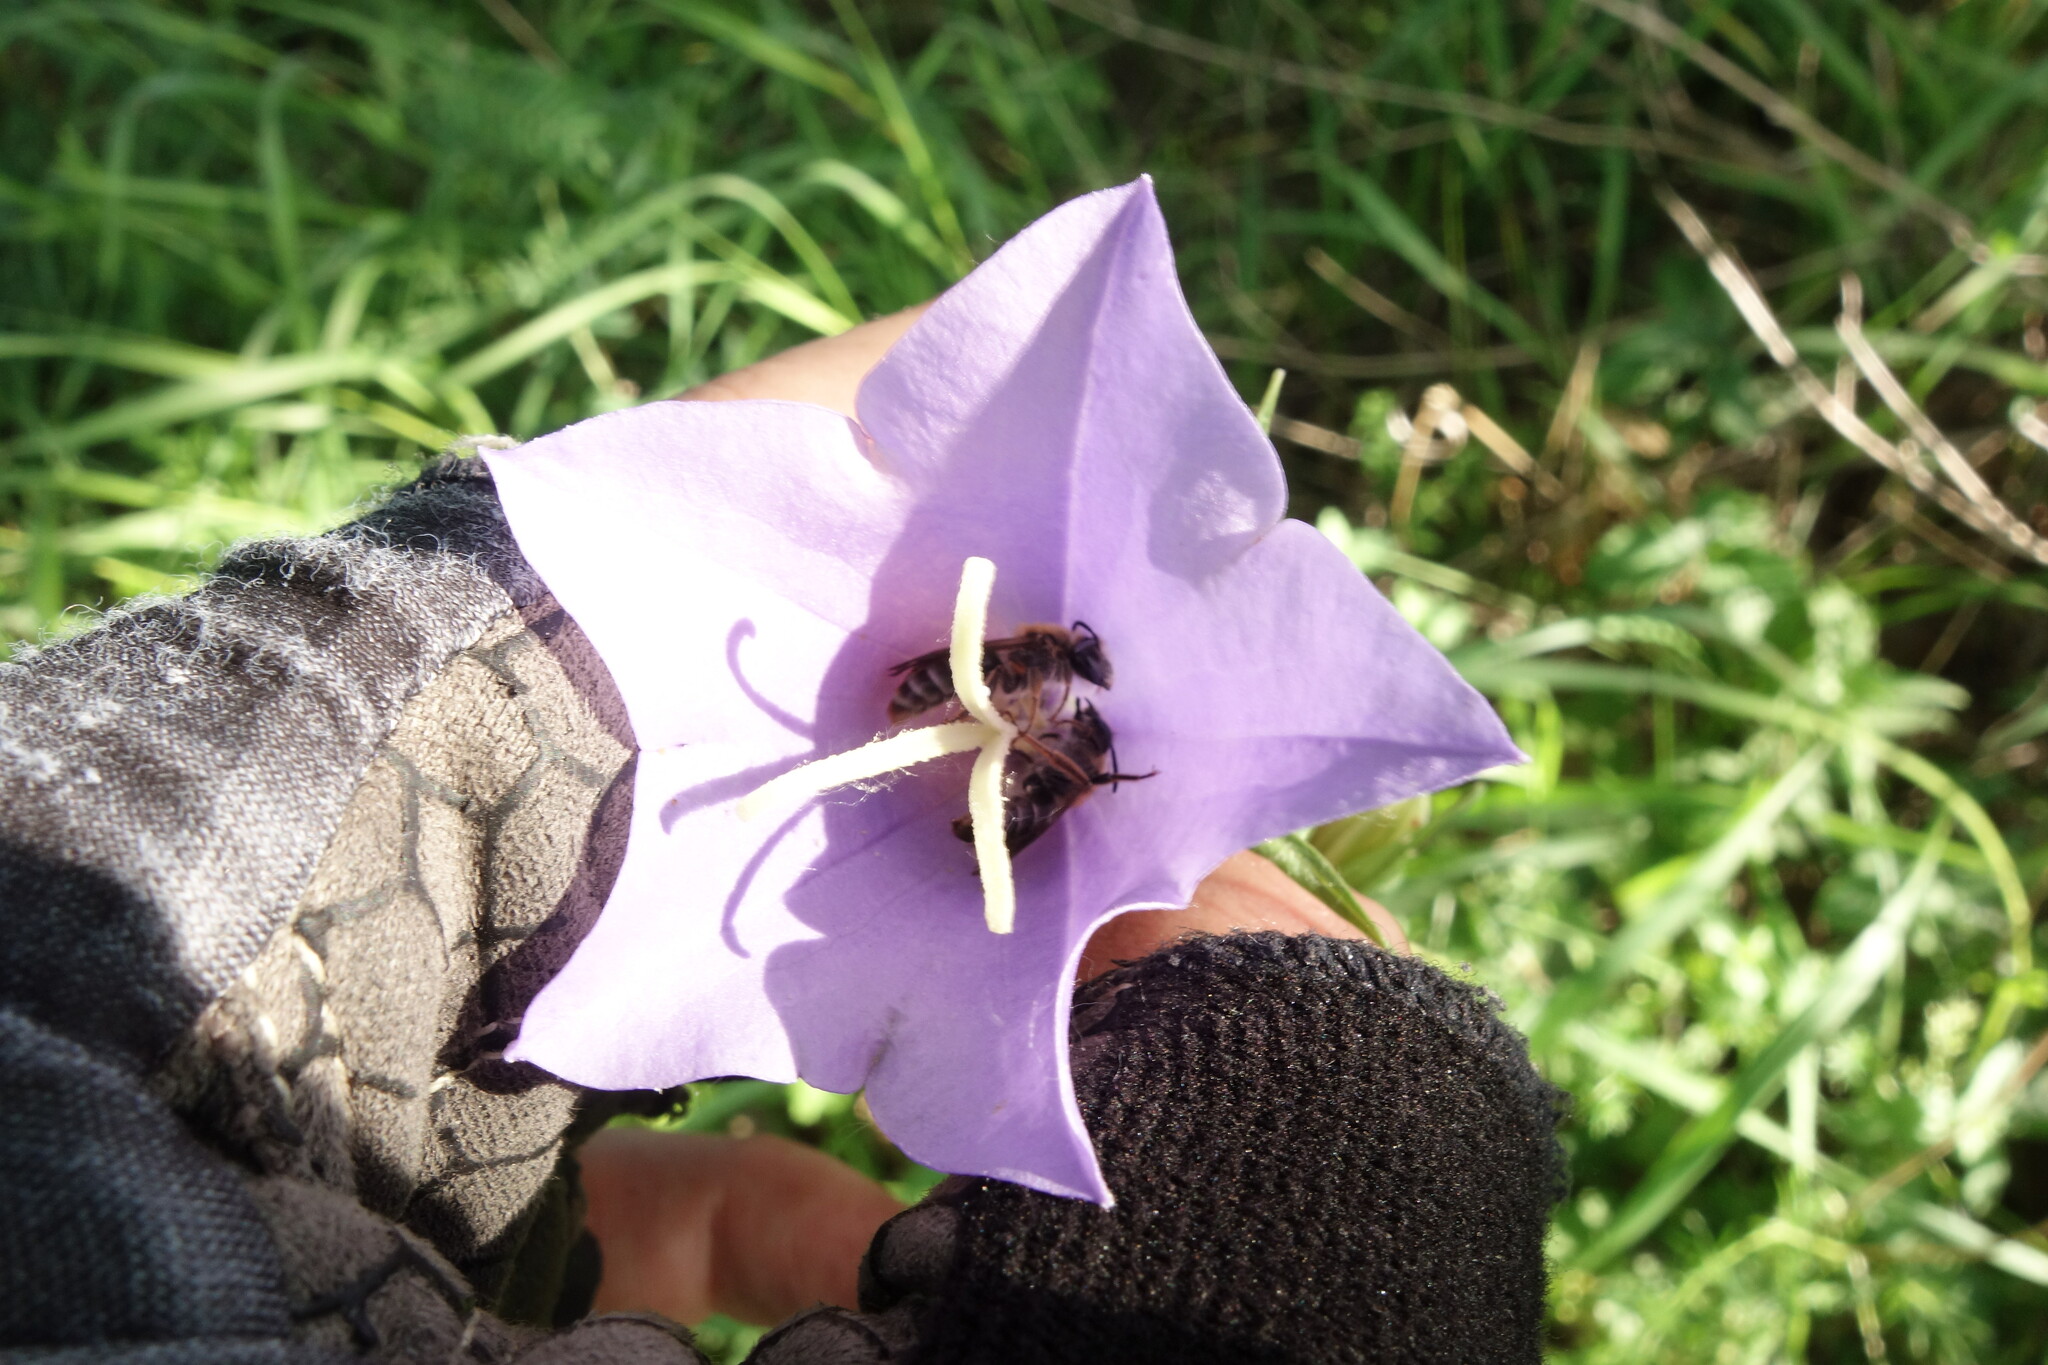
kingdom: Plantae
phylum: Tracheophyta
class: Magnoliopsida
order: Asterales
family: Campanulaceae
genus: Campanula
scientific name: Campanula persicifolia
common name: Peach-leaved bellflower
